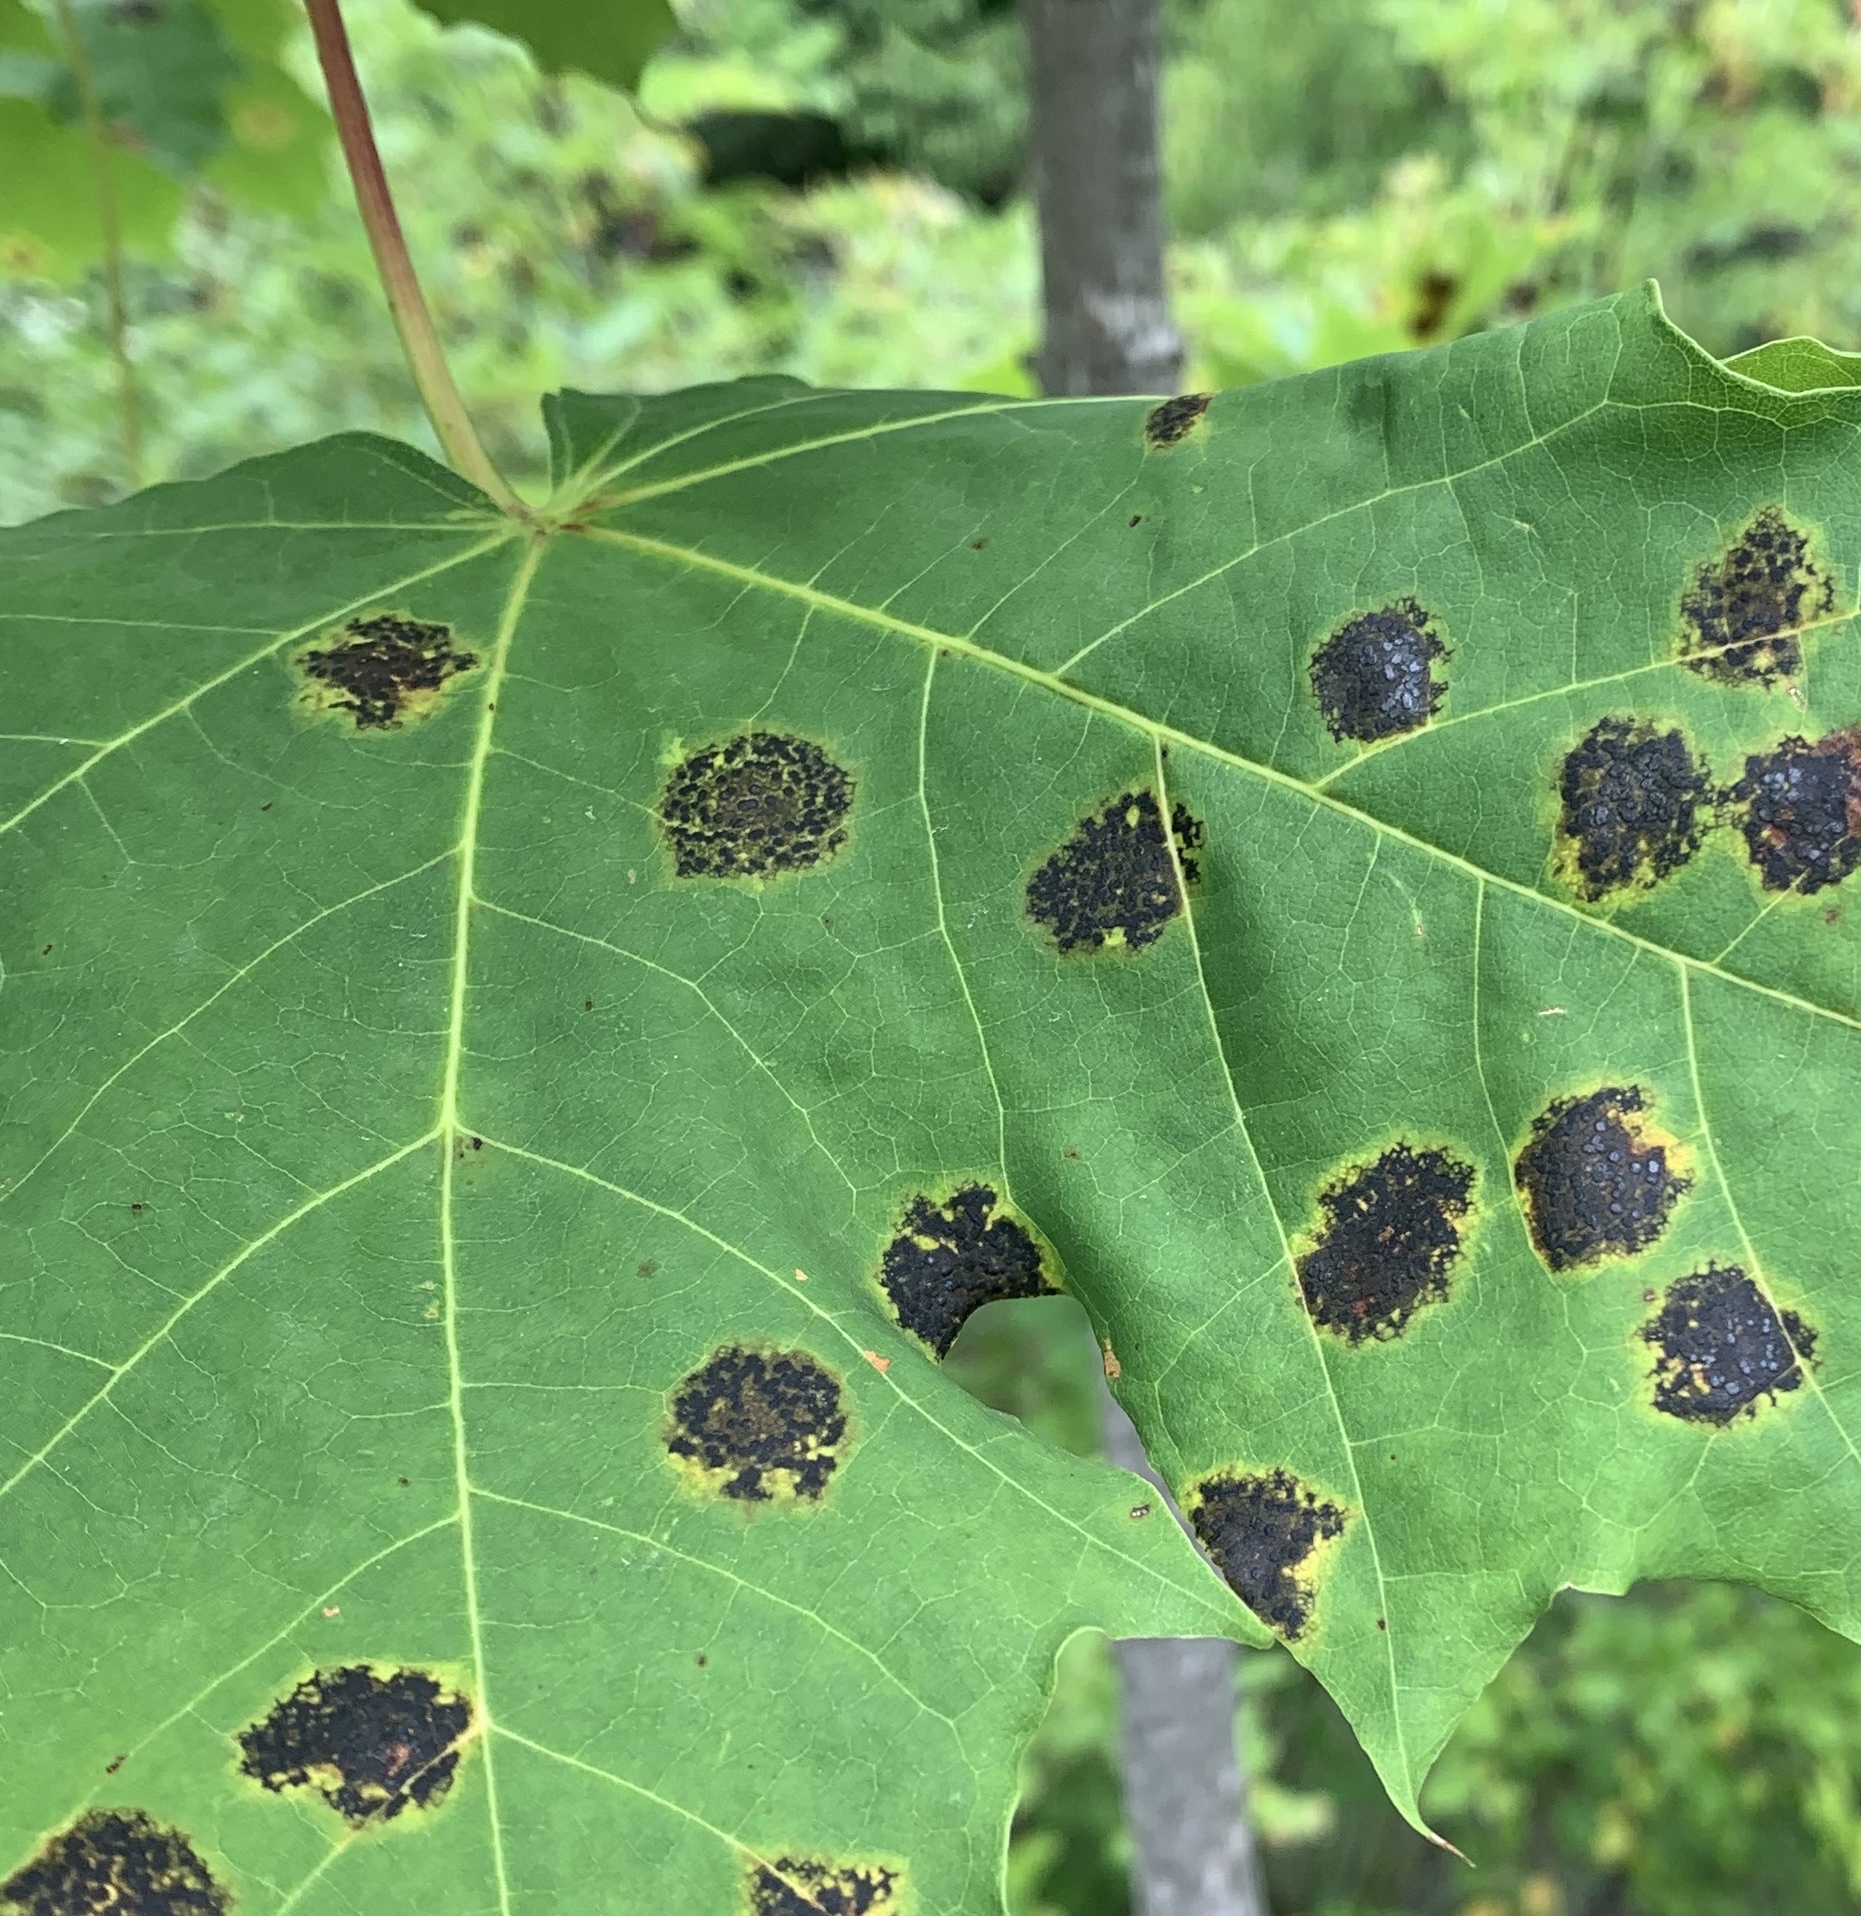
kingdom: Fungi
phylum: Ascomycota
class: Leotiomycetes
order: Rhytismatales
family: Rhytismataceae
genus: Rhytisma
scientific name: Rhytisma acerinum
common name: European tar spot
